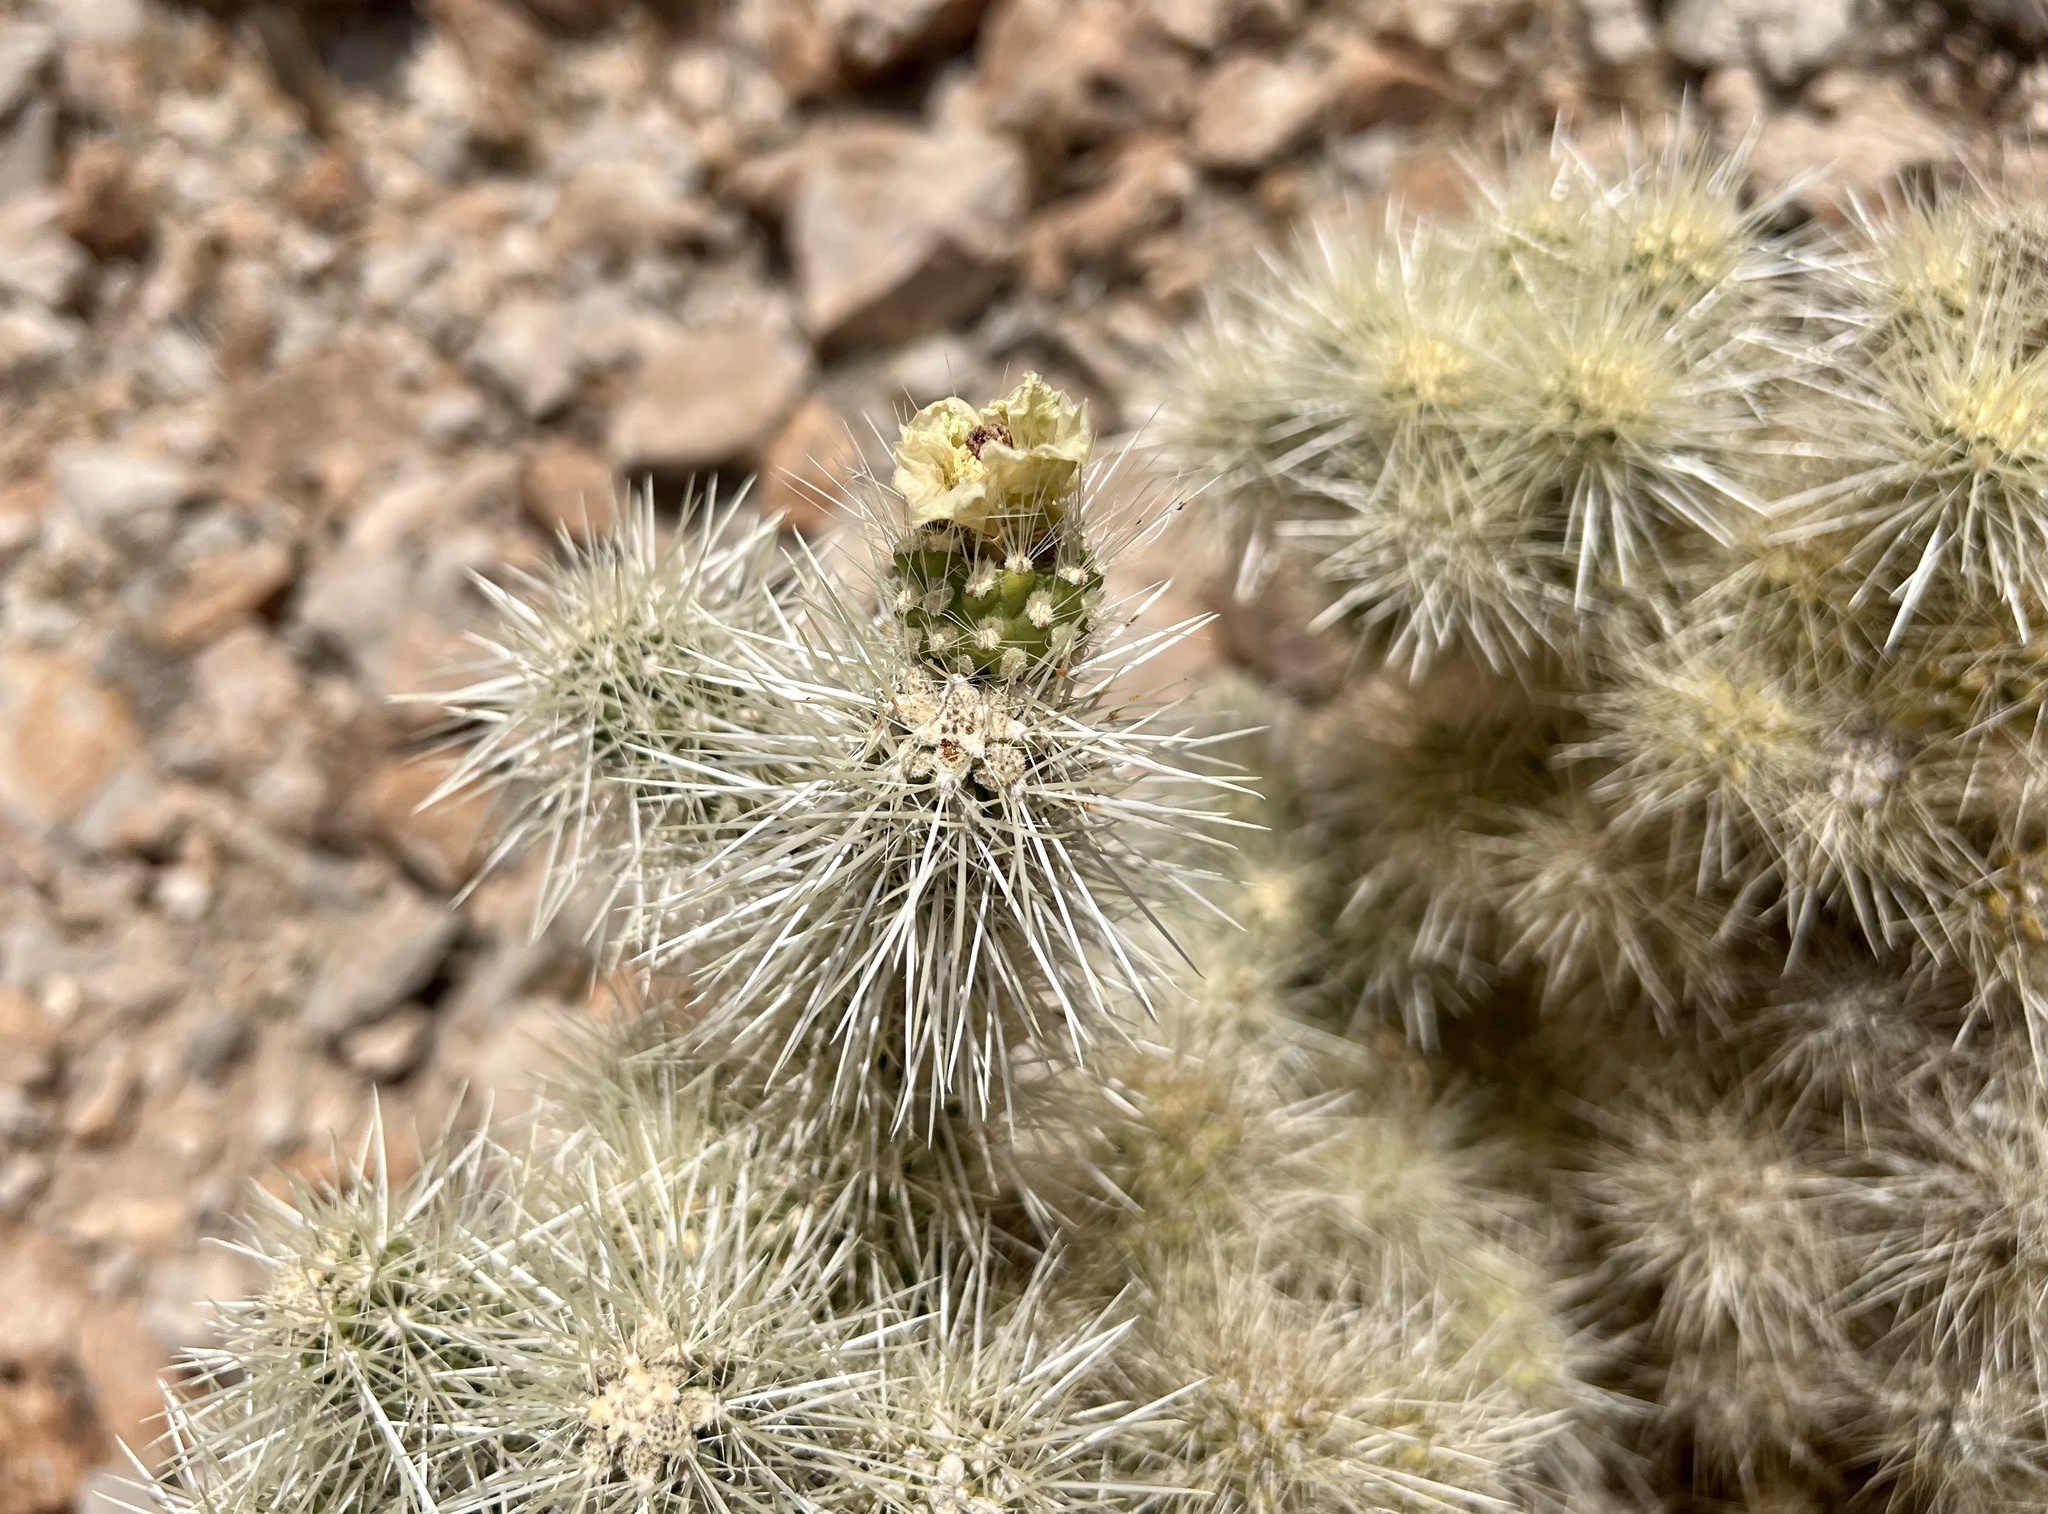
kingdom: Plantae
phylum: Tracheophyta
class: Magnoliopsida
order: Caryophyllales
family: Cactaceae
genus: Cylindropuntia
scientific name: Cylindropuntia multigeniculata
